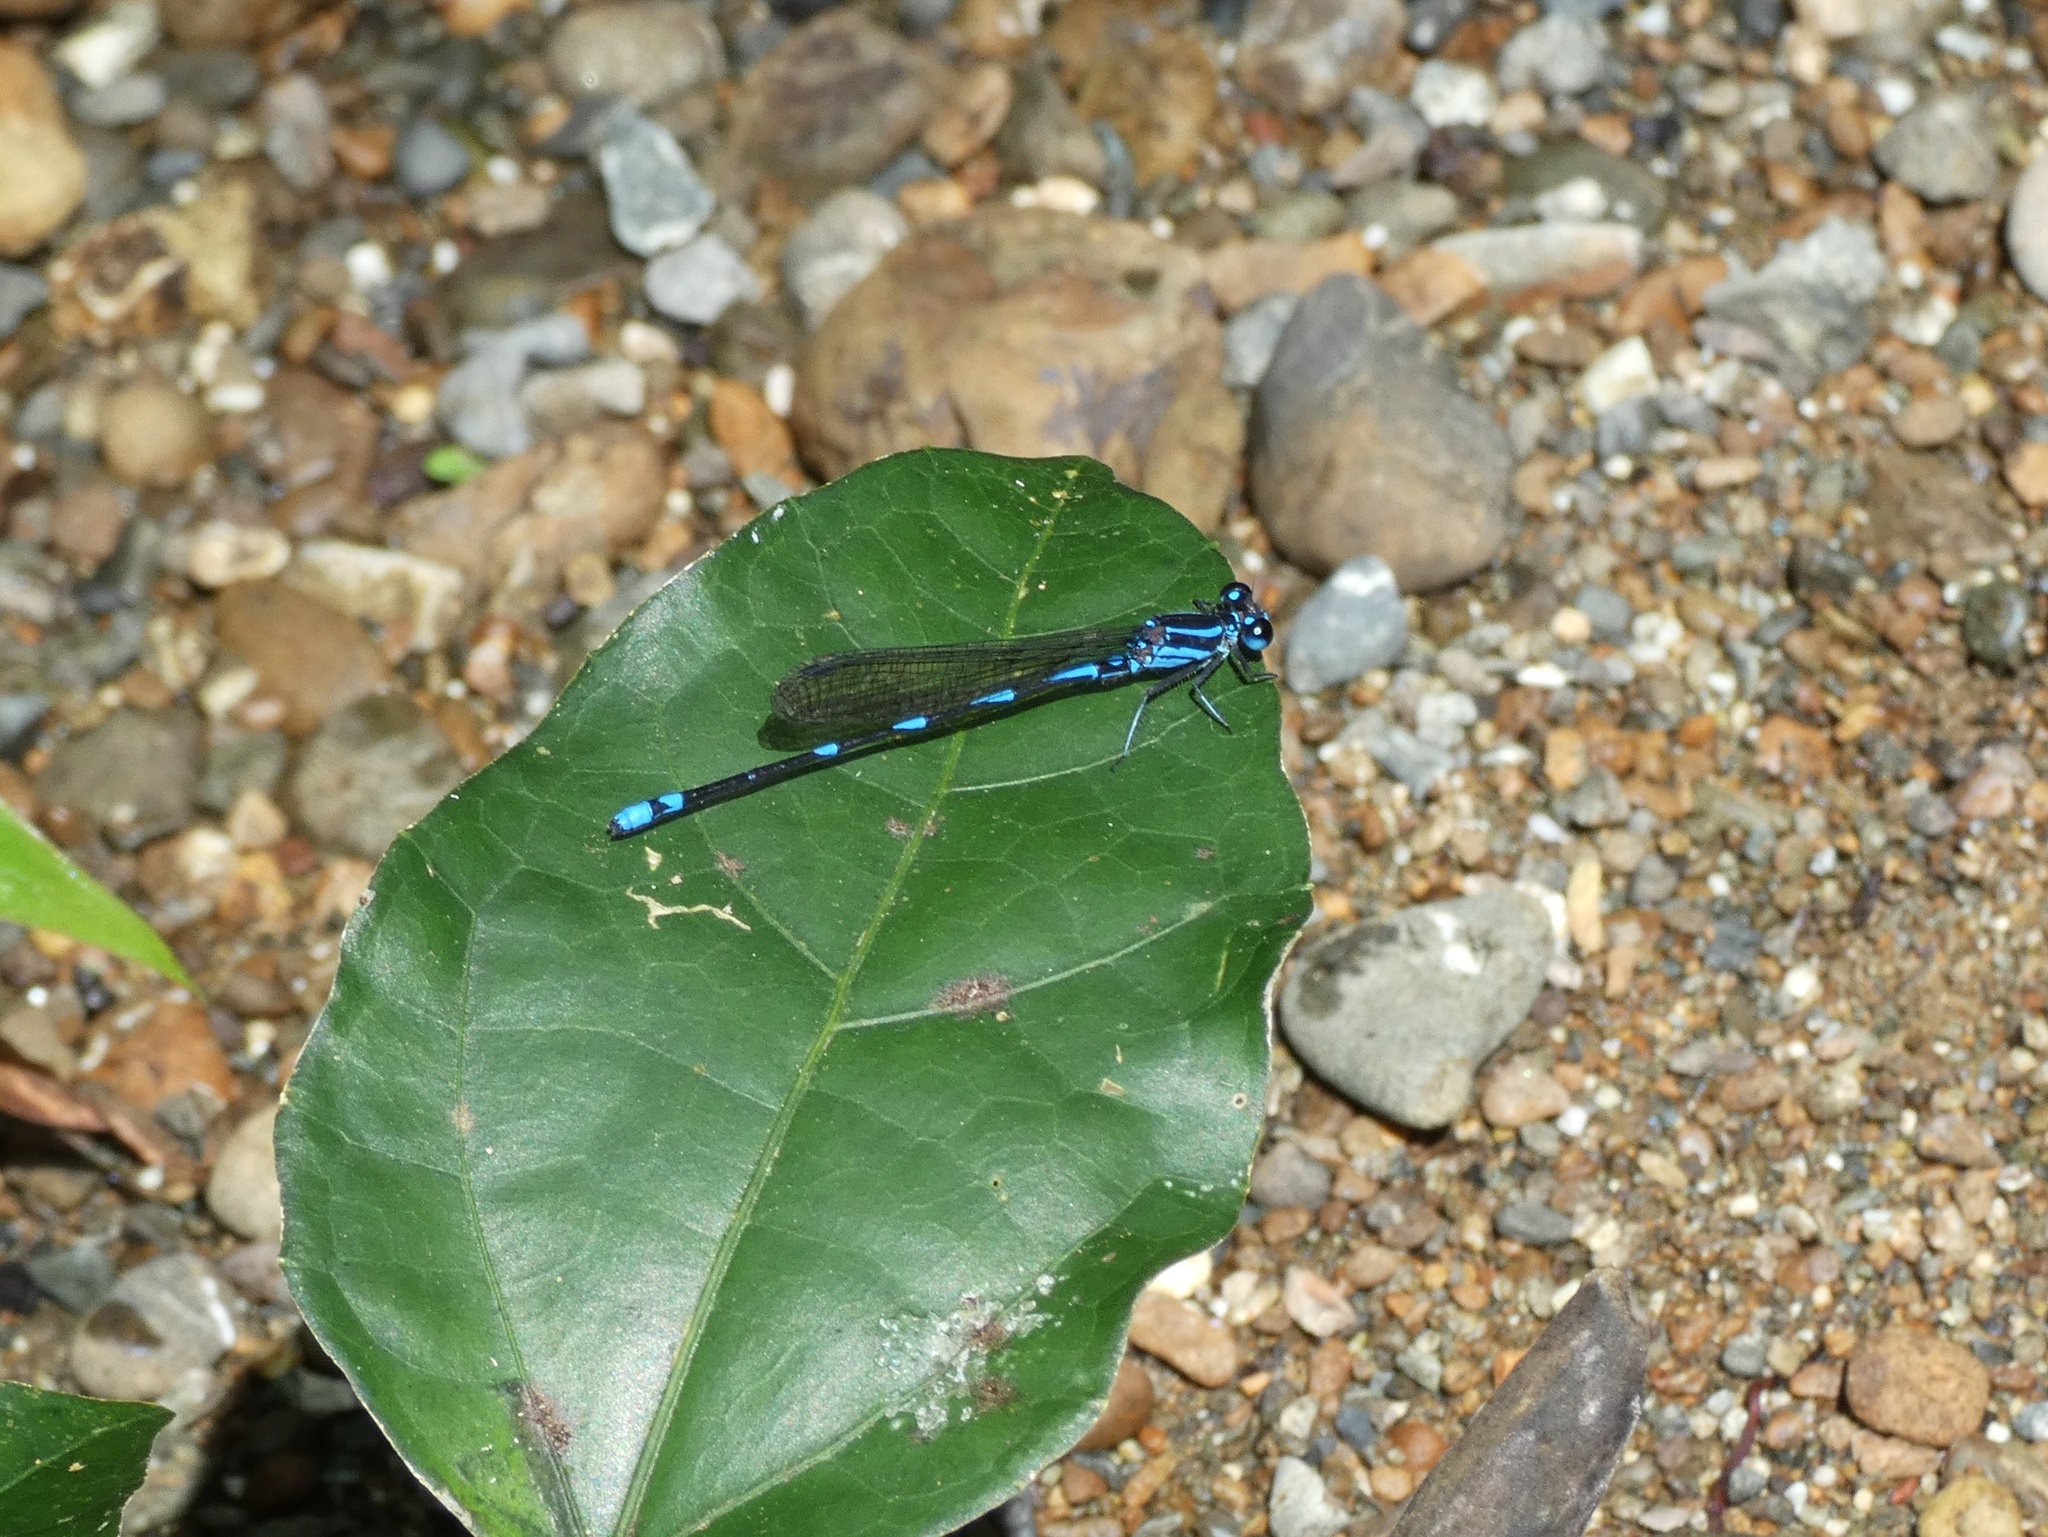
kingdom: Animalia
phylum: Arthropoda
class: Insecta
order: Odonata
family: Coenagrionidae
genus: Argia
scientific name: Argia adamsi
